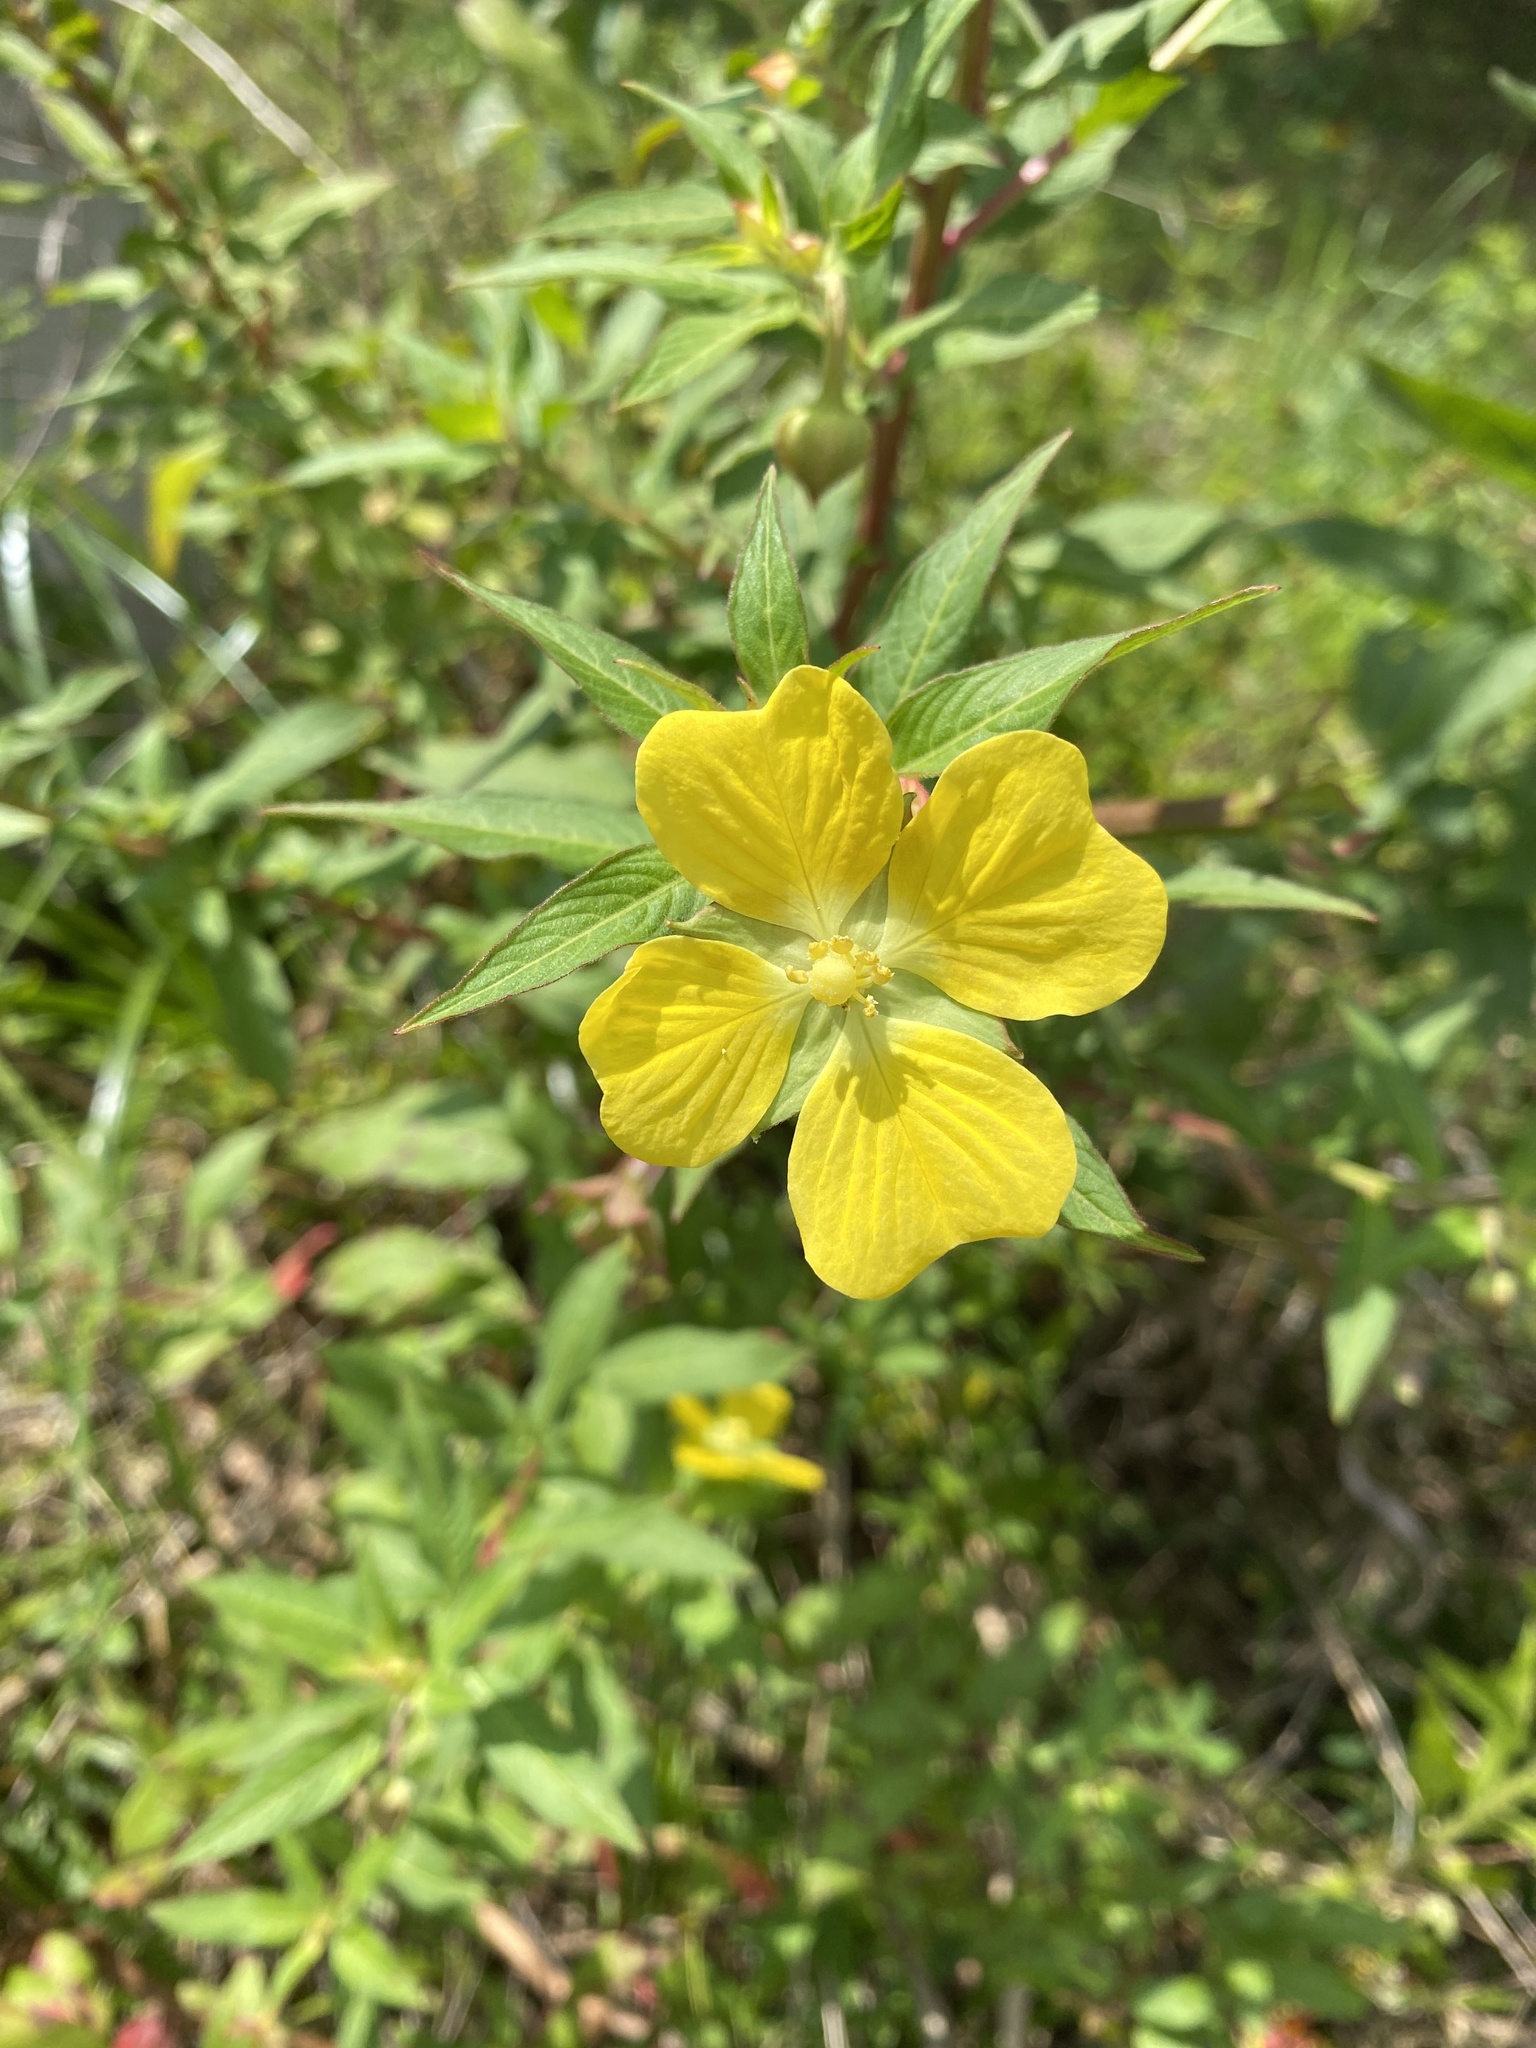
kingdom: Plantae
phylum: Tracheophyta
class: Magnoliopsida
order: Myrtales
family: Onagraceae
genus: Ludwigia
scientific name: Ludwigia octovalvis
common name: Water-primrose
